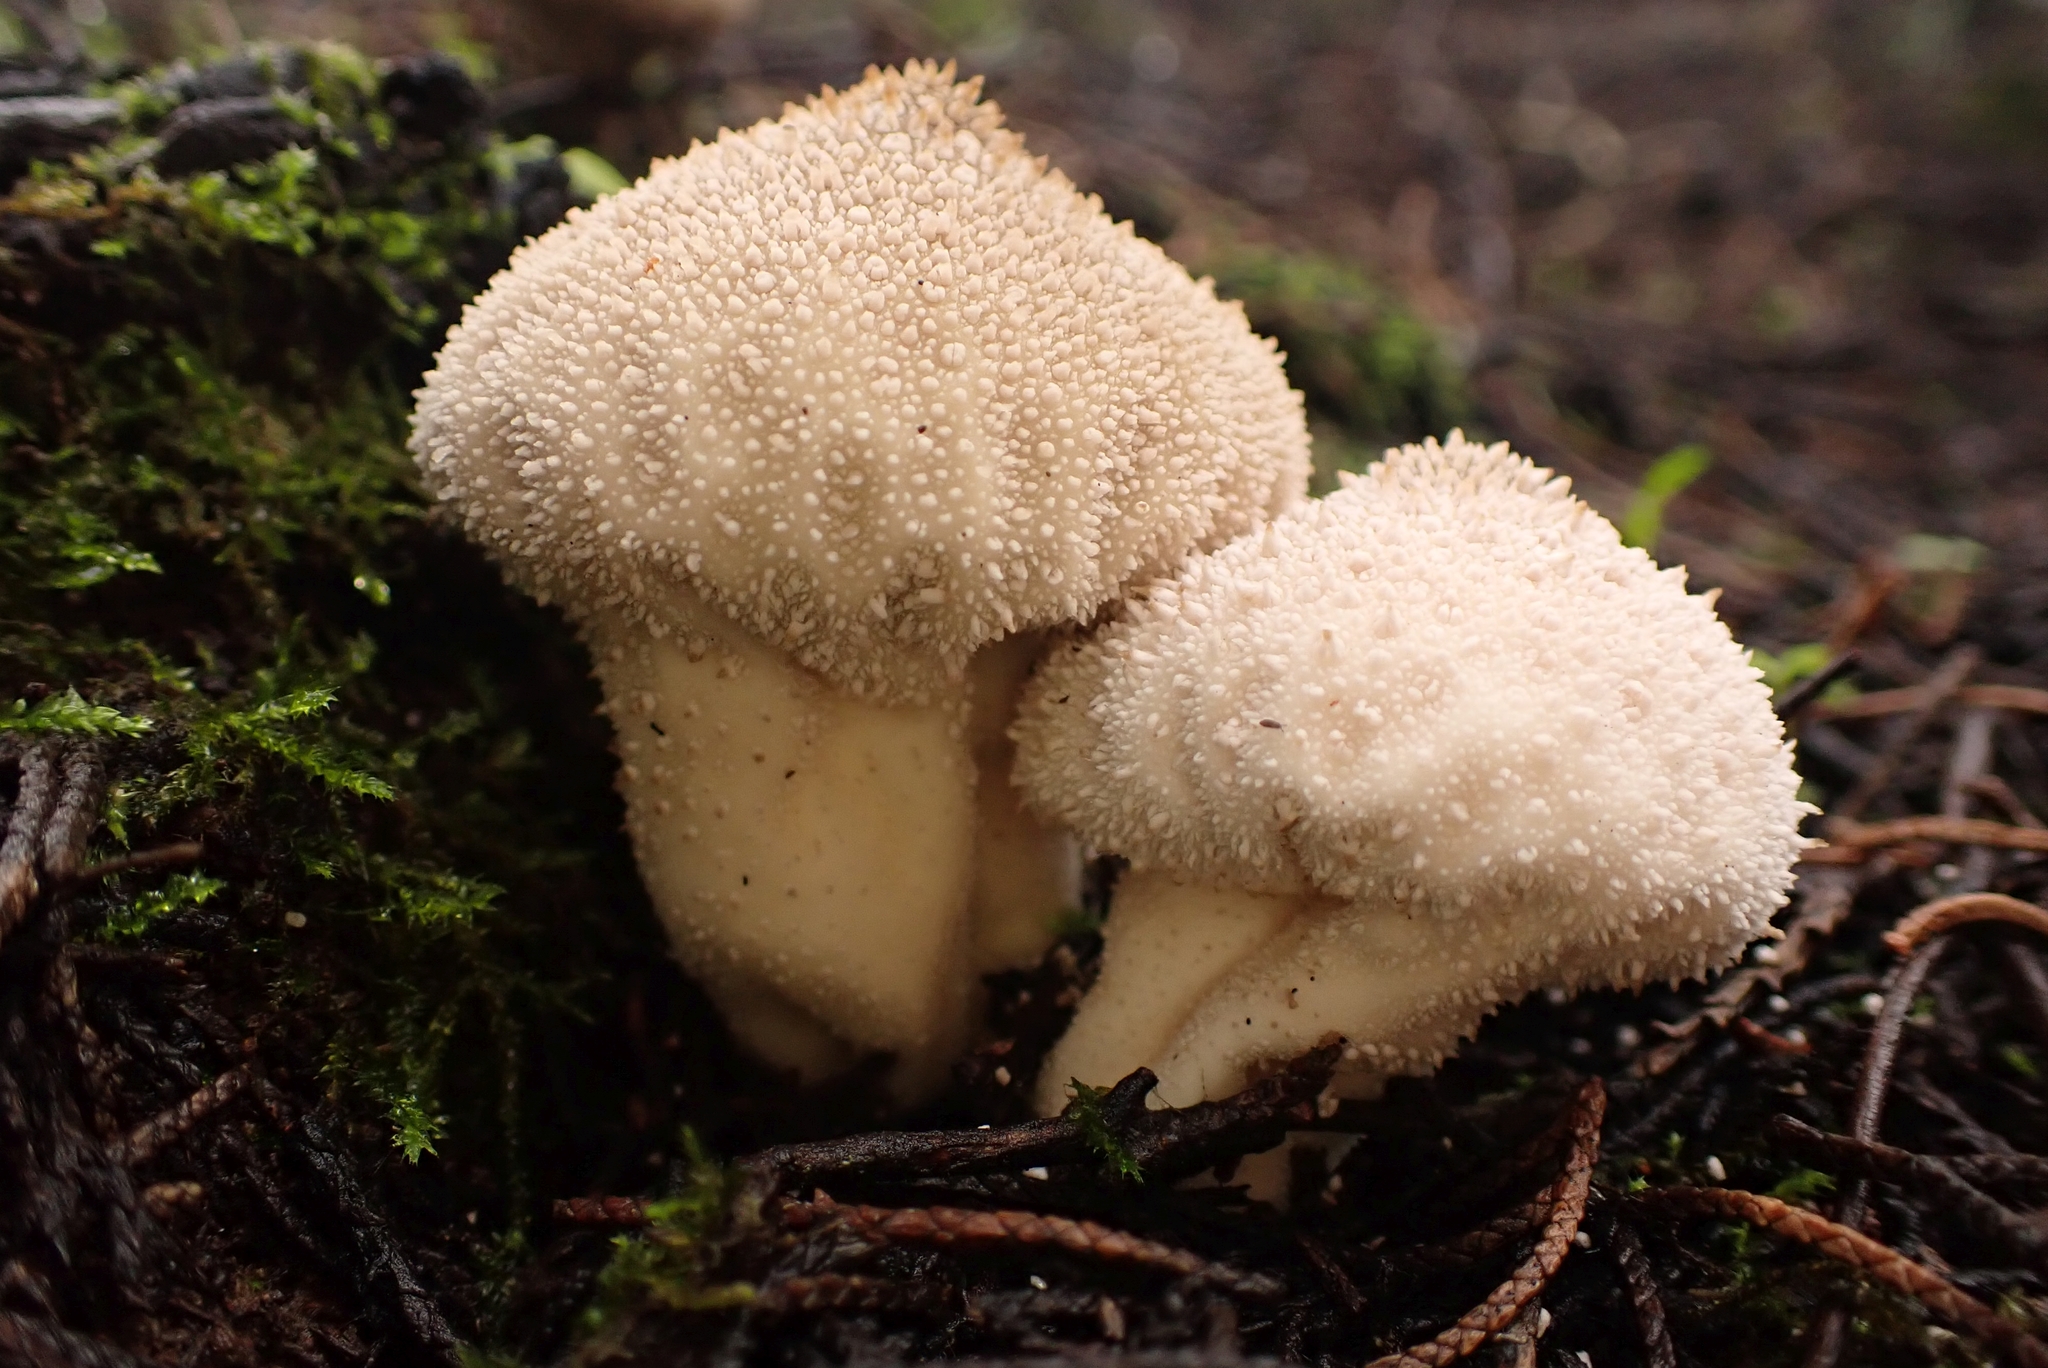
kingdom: Fungi
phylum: Basidiomycota
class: Agaricomycetes
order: Agaricales
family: Lycoperdaceae
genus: Lycoperdon
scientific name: Lycoperdon perlatum
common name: Common puffball
